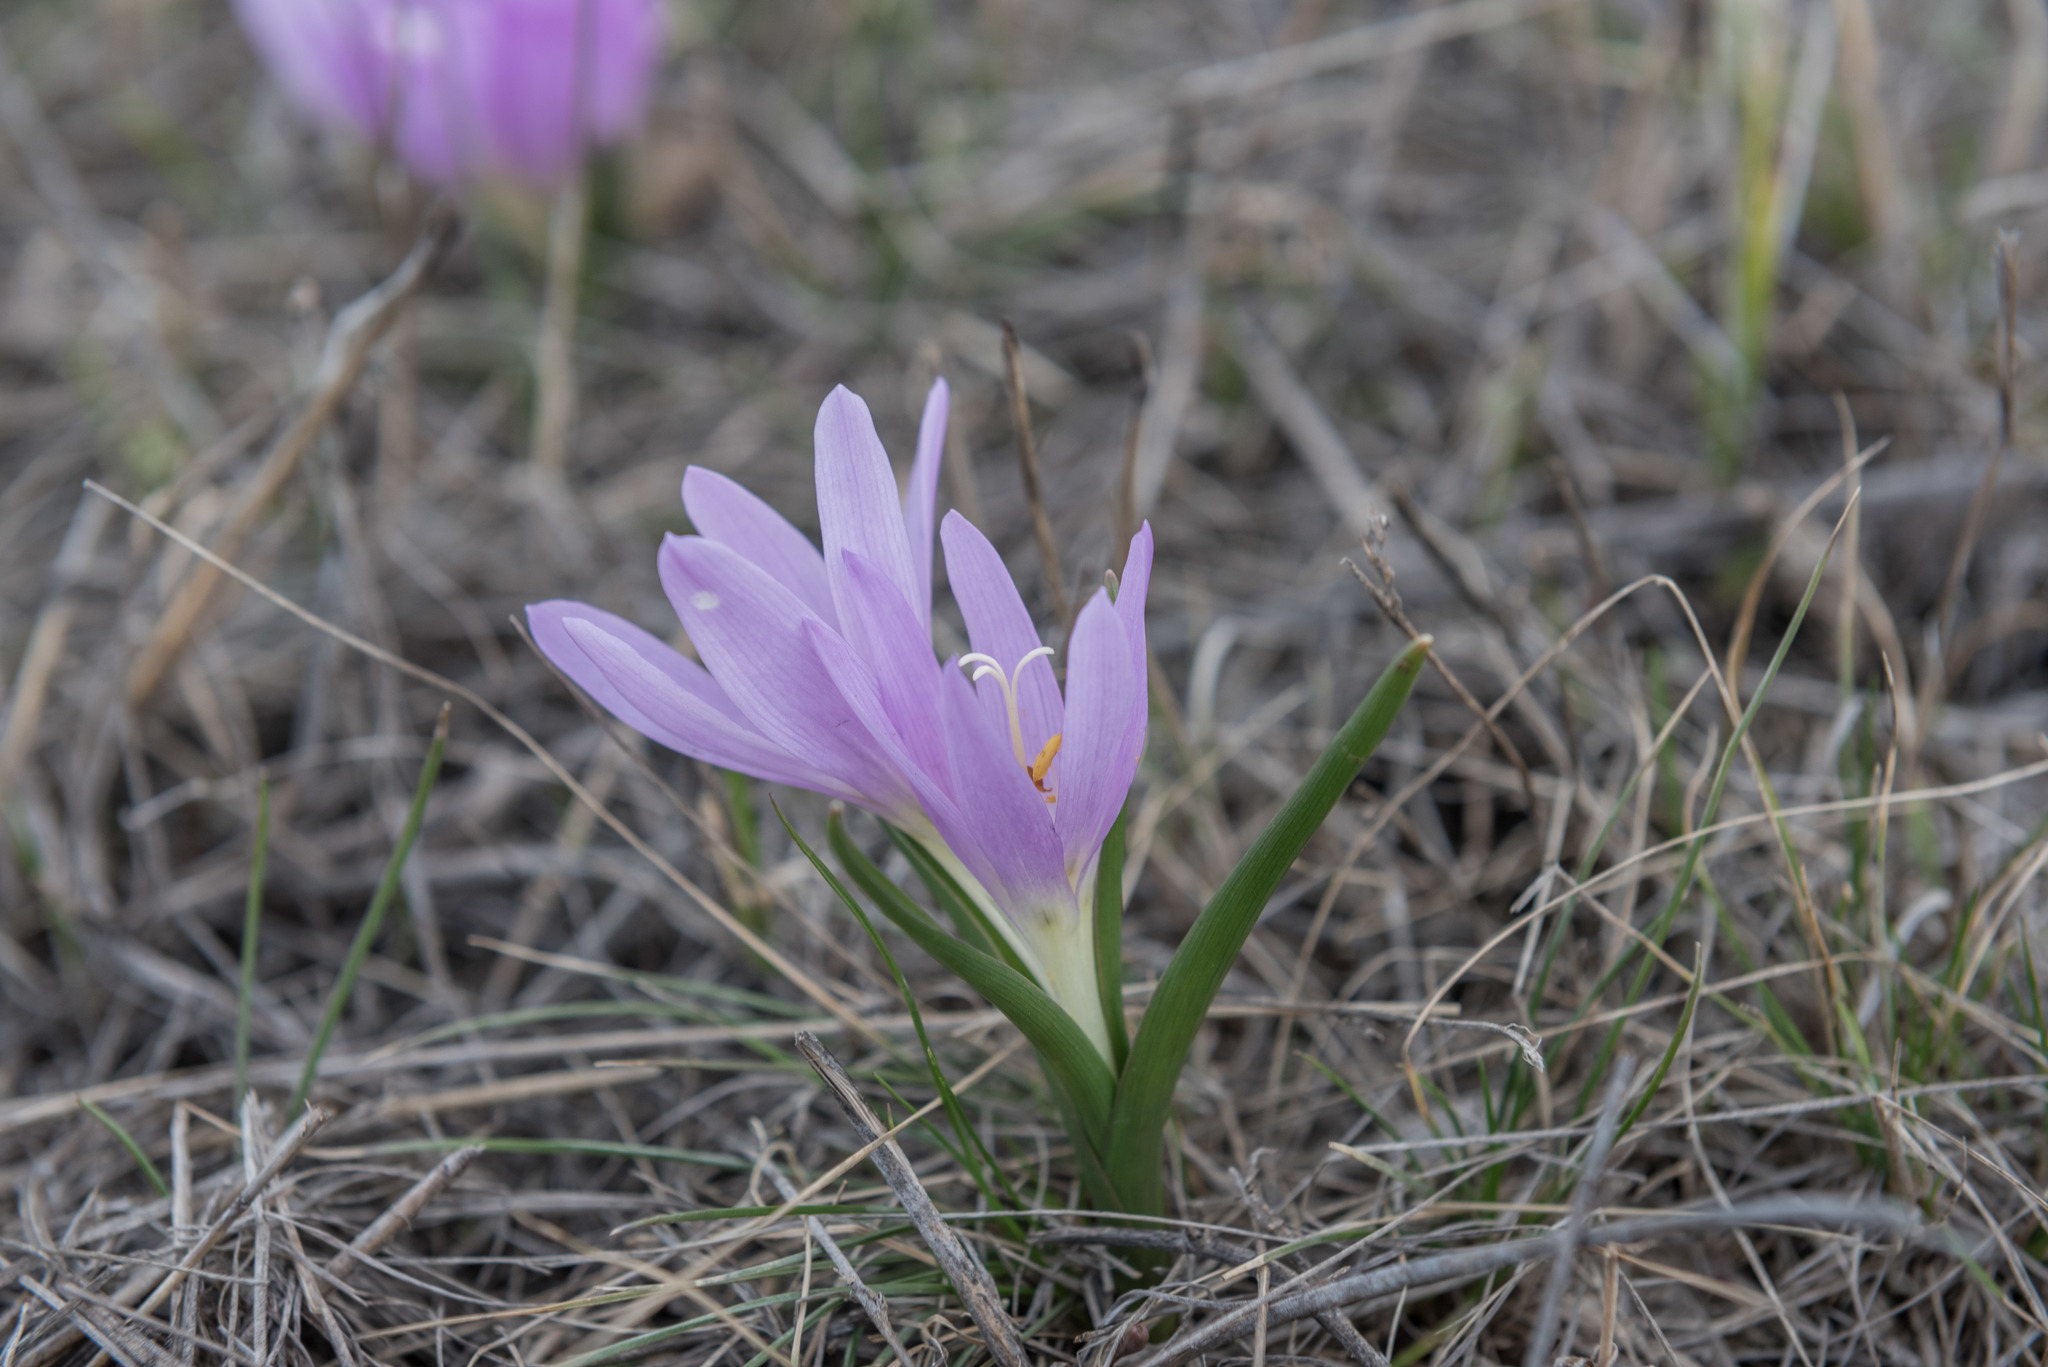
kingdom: Plantae
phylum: Tracheophyta
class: Liliopsida
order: Liliales
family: Colchicaceae
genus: Colchicum
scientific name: Colchicum bulbocodium
